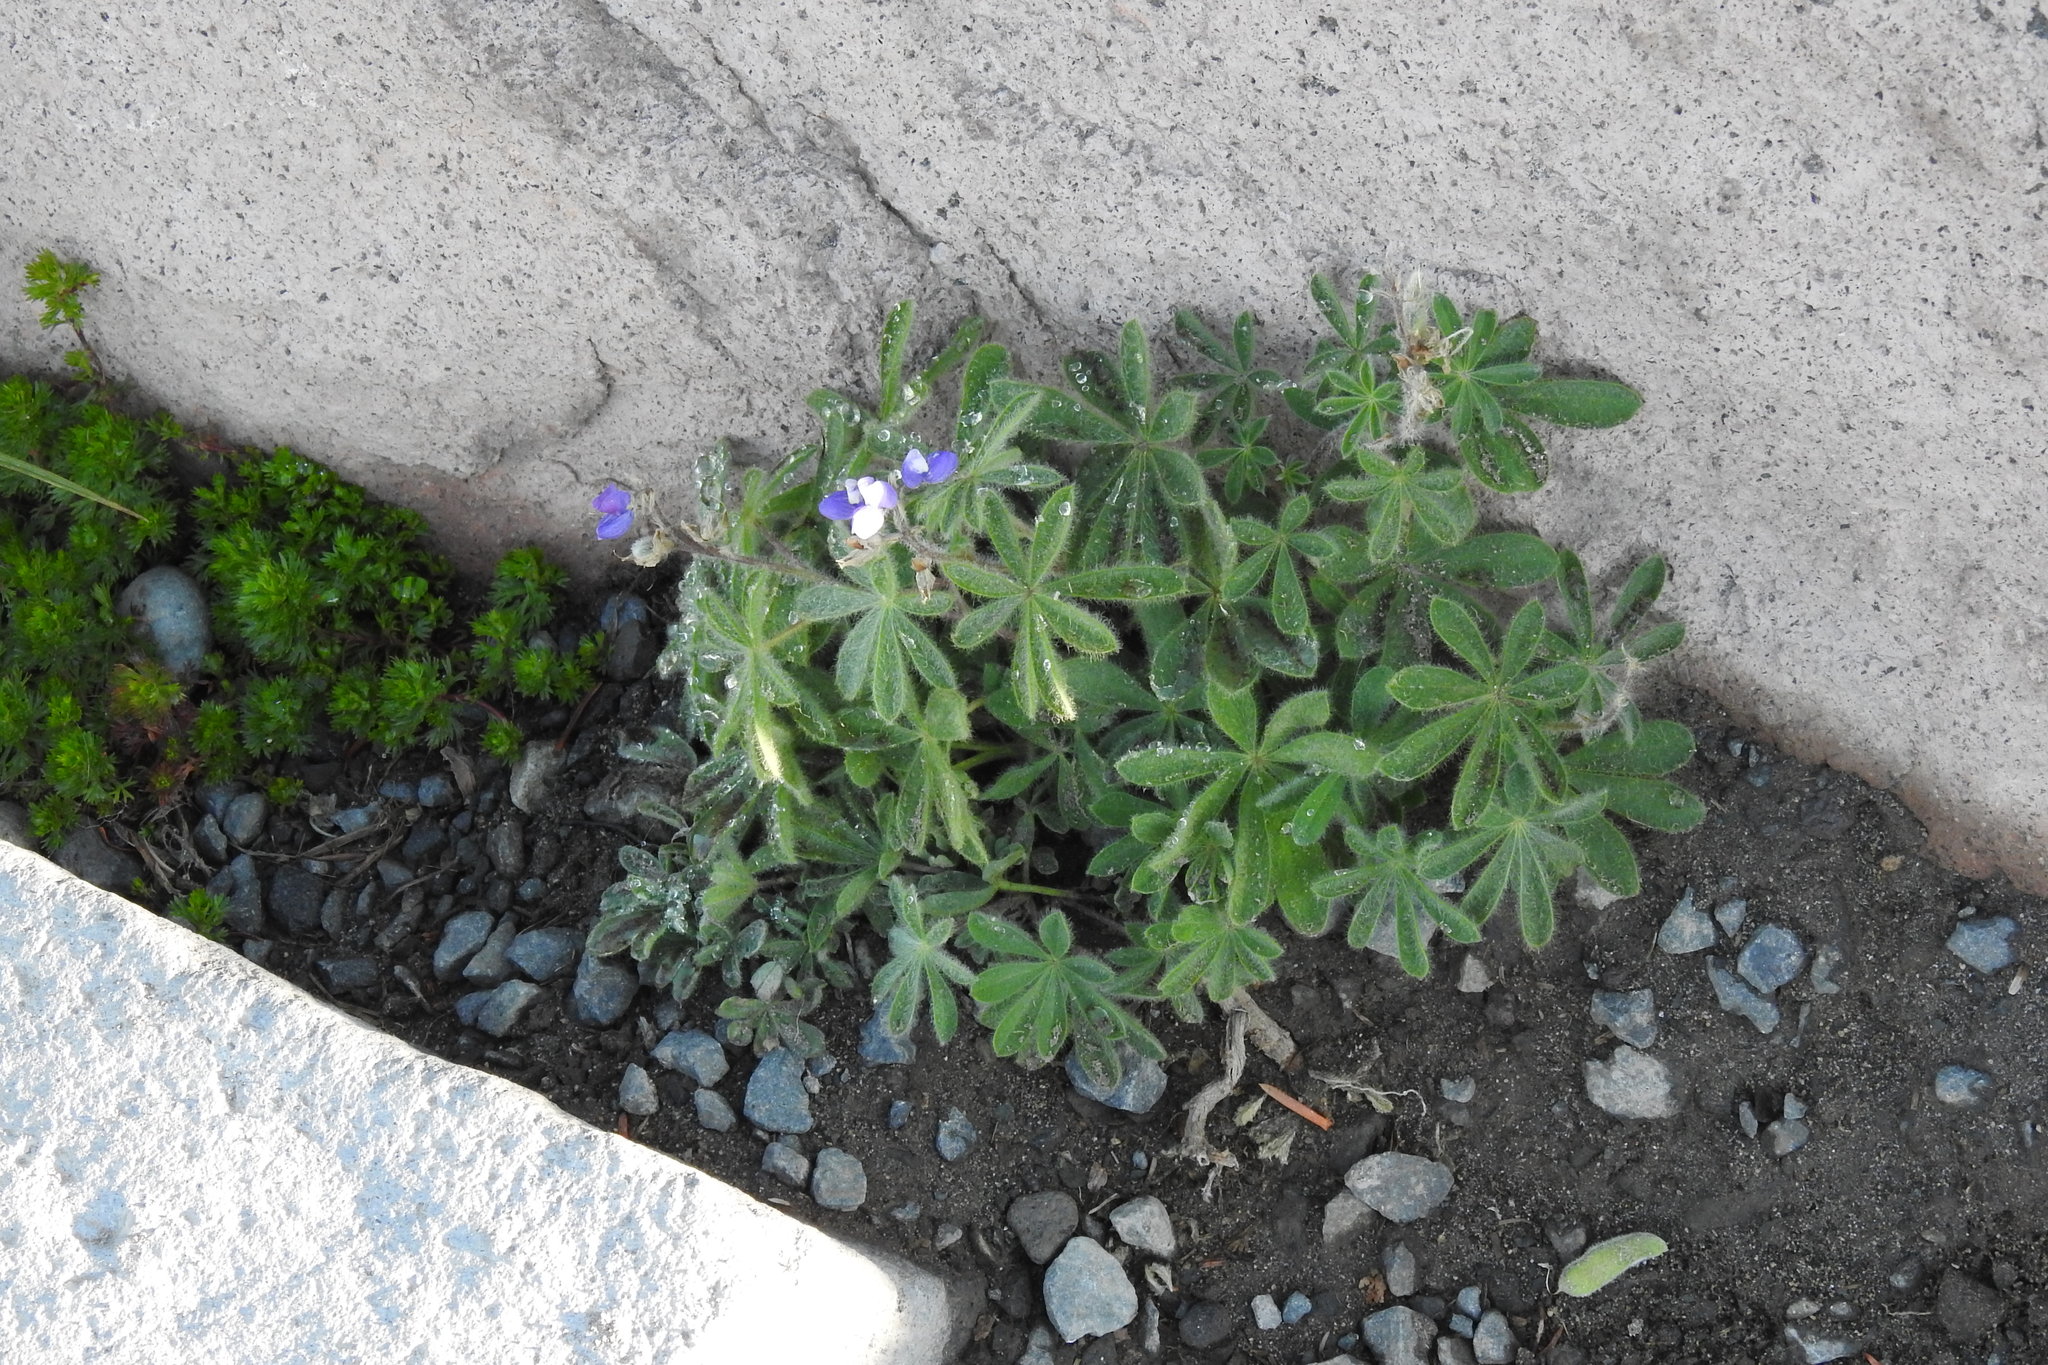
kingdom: Plantae
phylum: Tracheophyta
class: Magnoliopsida
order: Fabales
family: Fabaceae
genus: Lupinus
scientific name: Lupinus arcticus
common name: Arctic lupine
